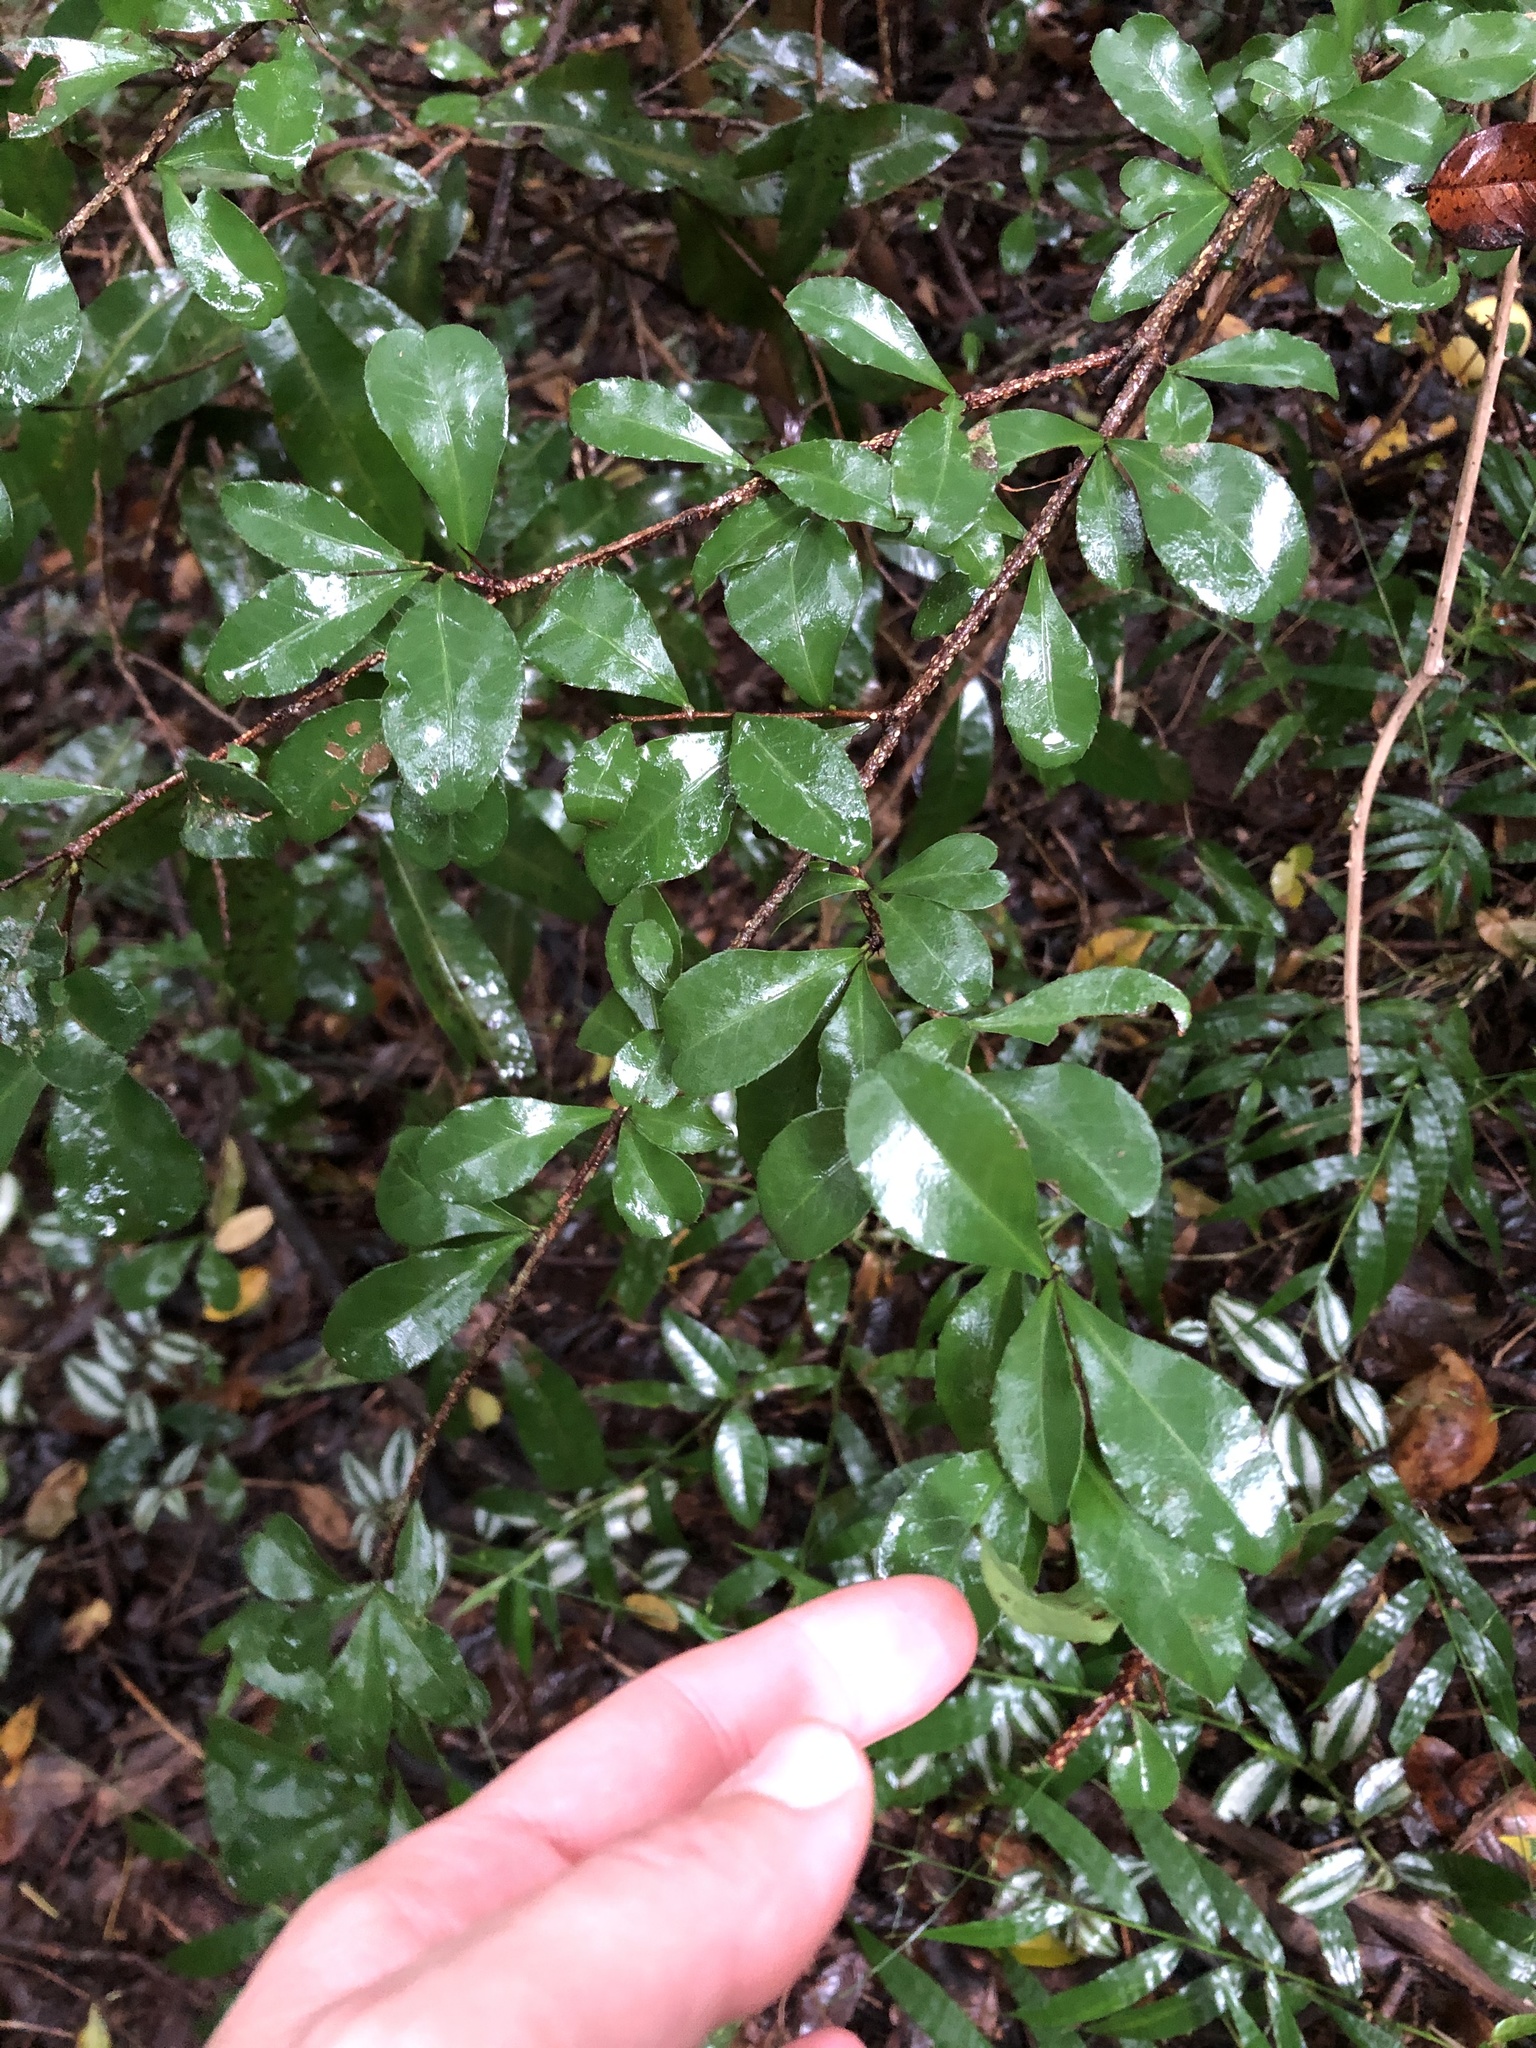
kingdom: Plantae
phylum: Tracheophyta
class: Magnoliopsida
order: Celastrales
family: Celastraceae
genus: Putterlickia
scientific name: Putterlickia verrucosa
